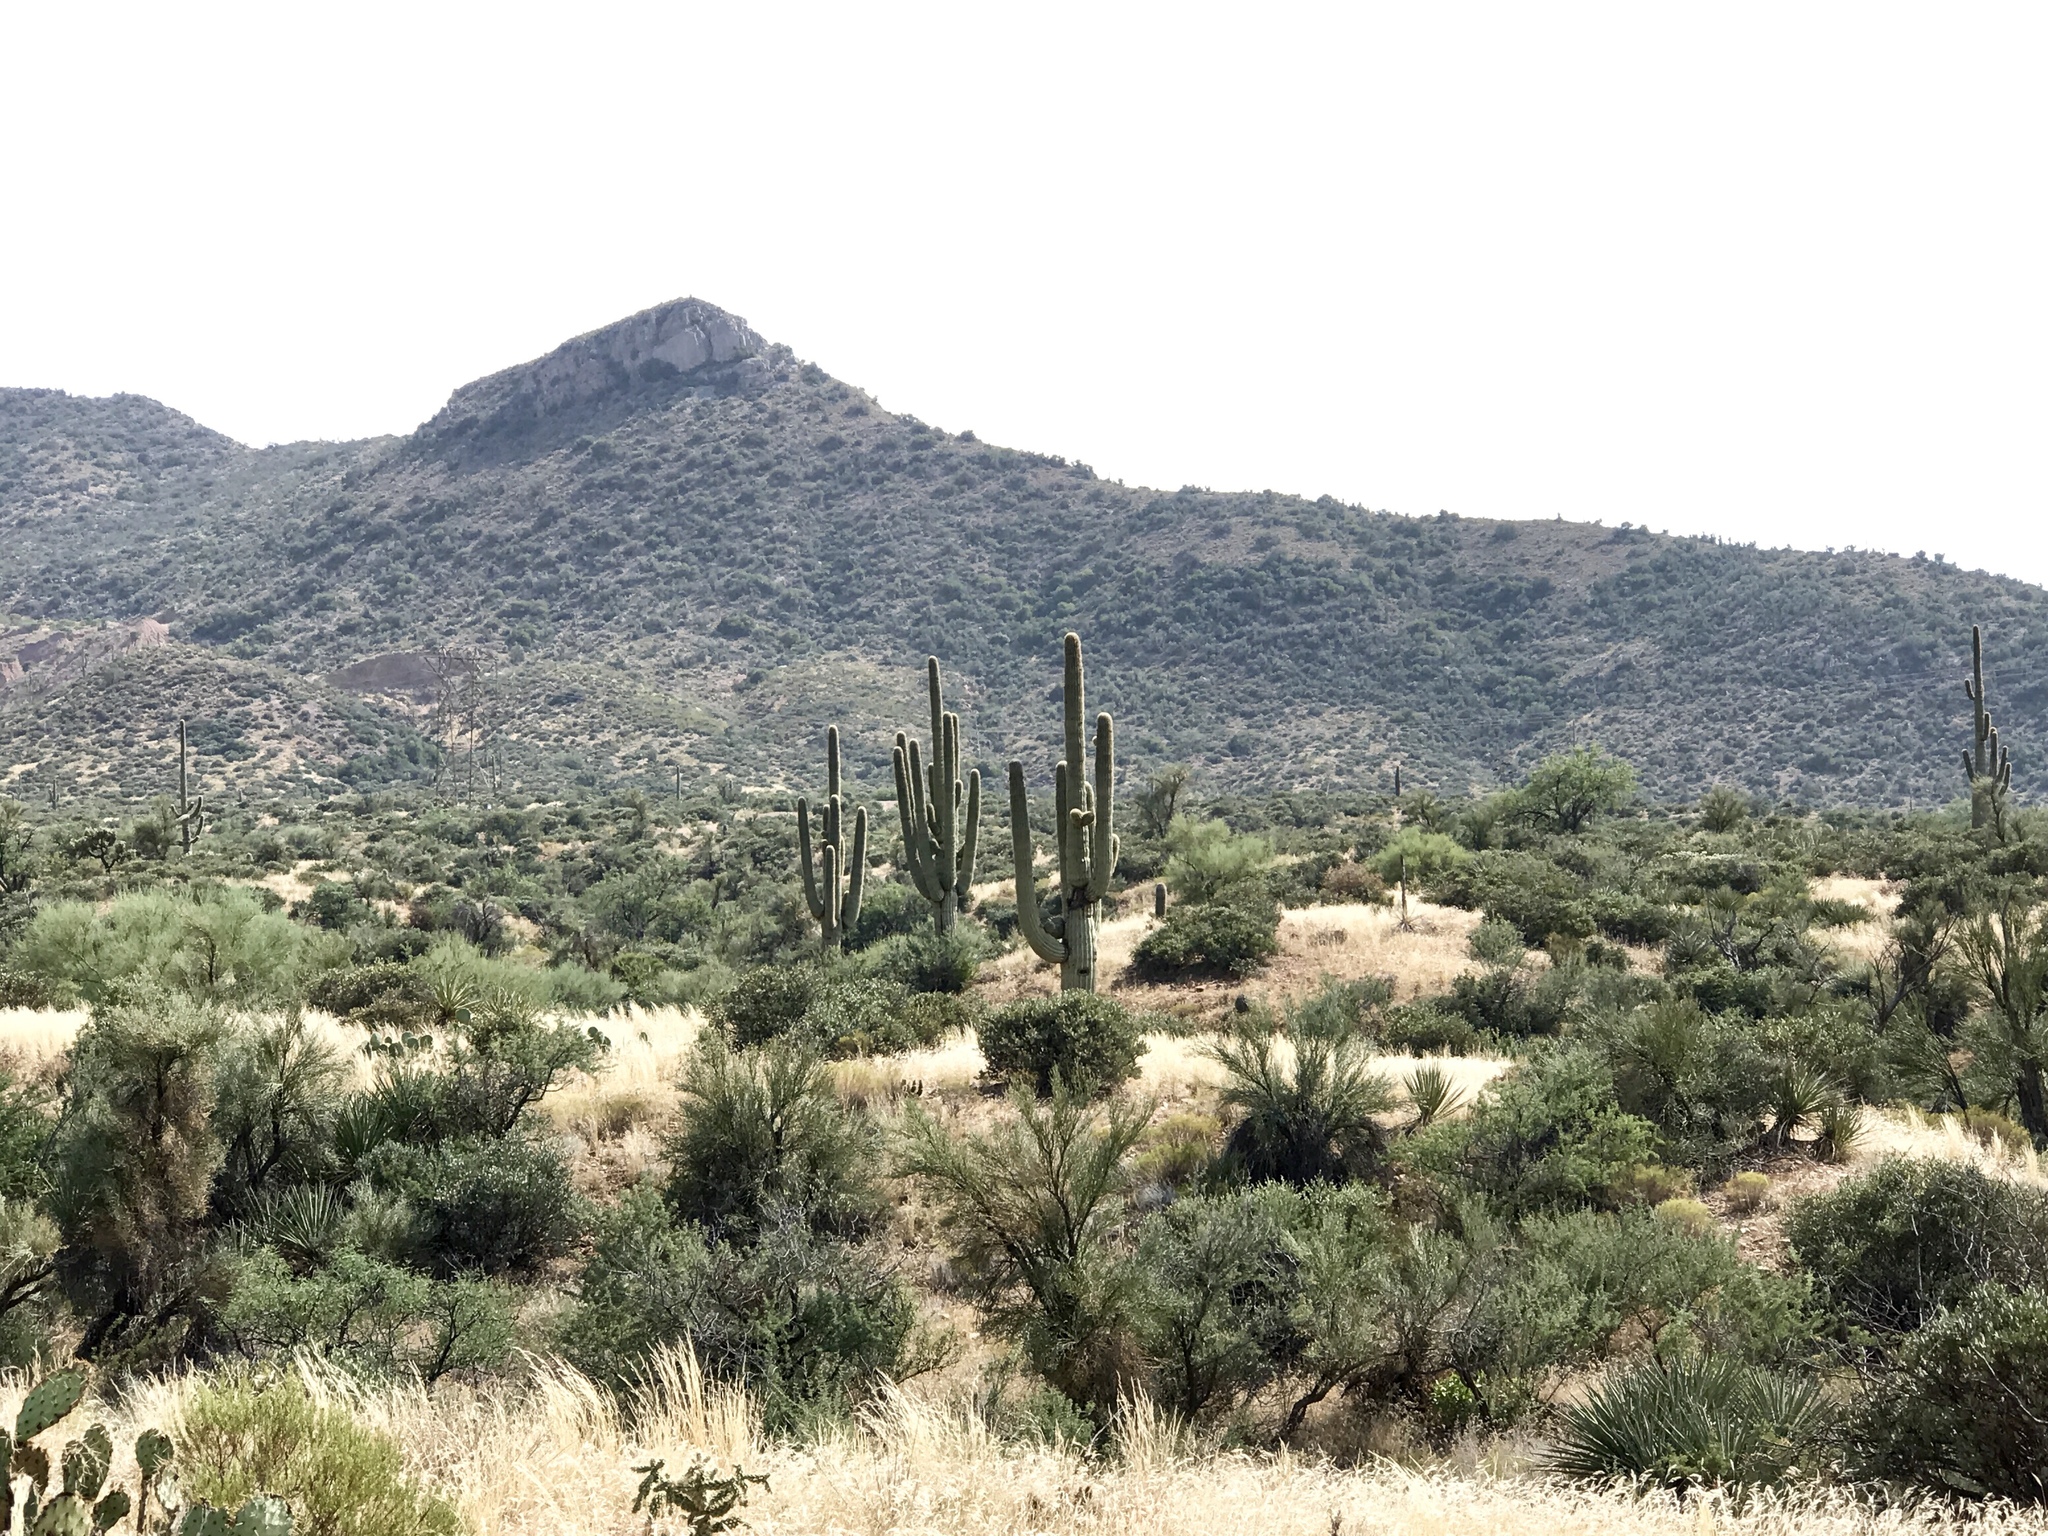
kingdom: Plantae
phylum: Tracheophyta
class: Magnoliopsida
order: Caryophyllales
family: Cactaceae
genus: Carnegiea
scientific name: Carnegiea gigantea
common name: Saguaro
